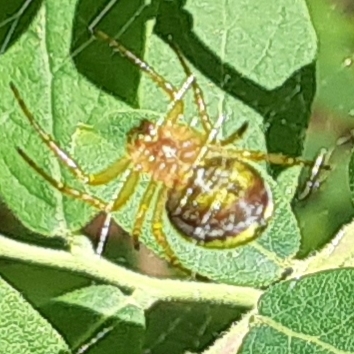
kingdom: Animalia
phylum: Arthropoda
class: Arachnida
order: Araneae
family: Araneidae
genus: Araniella
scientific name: Araniella displicata
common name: Sixspotted orb weaver
